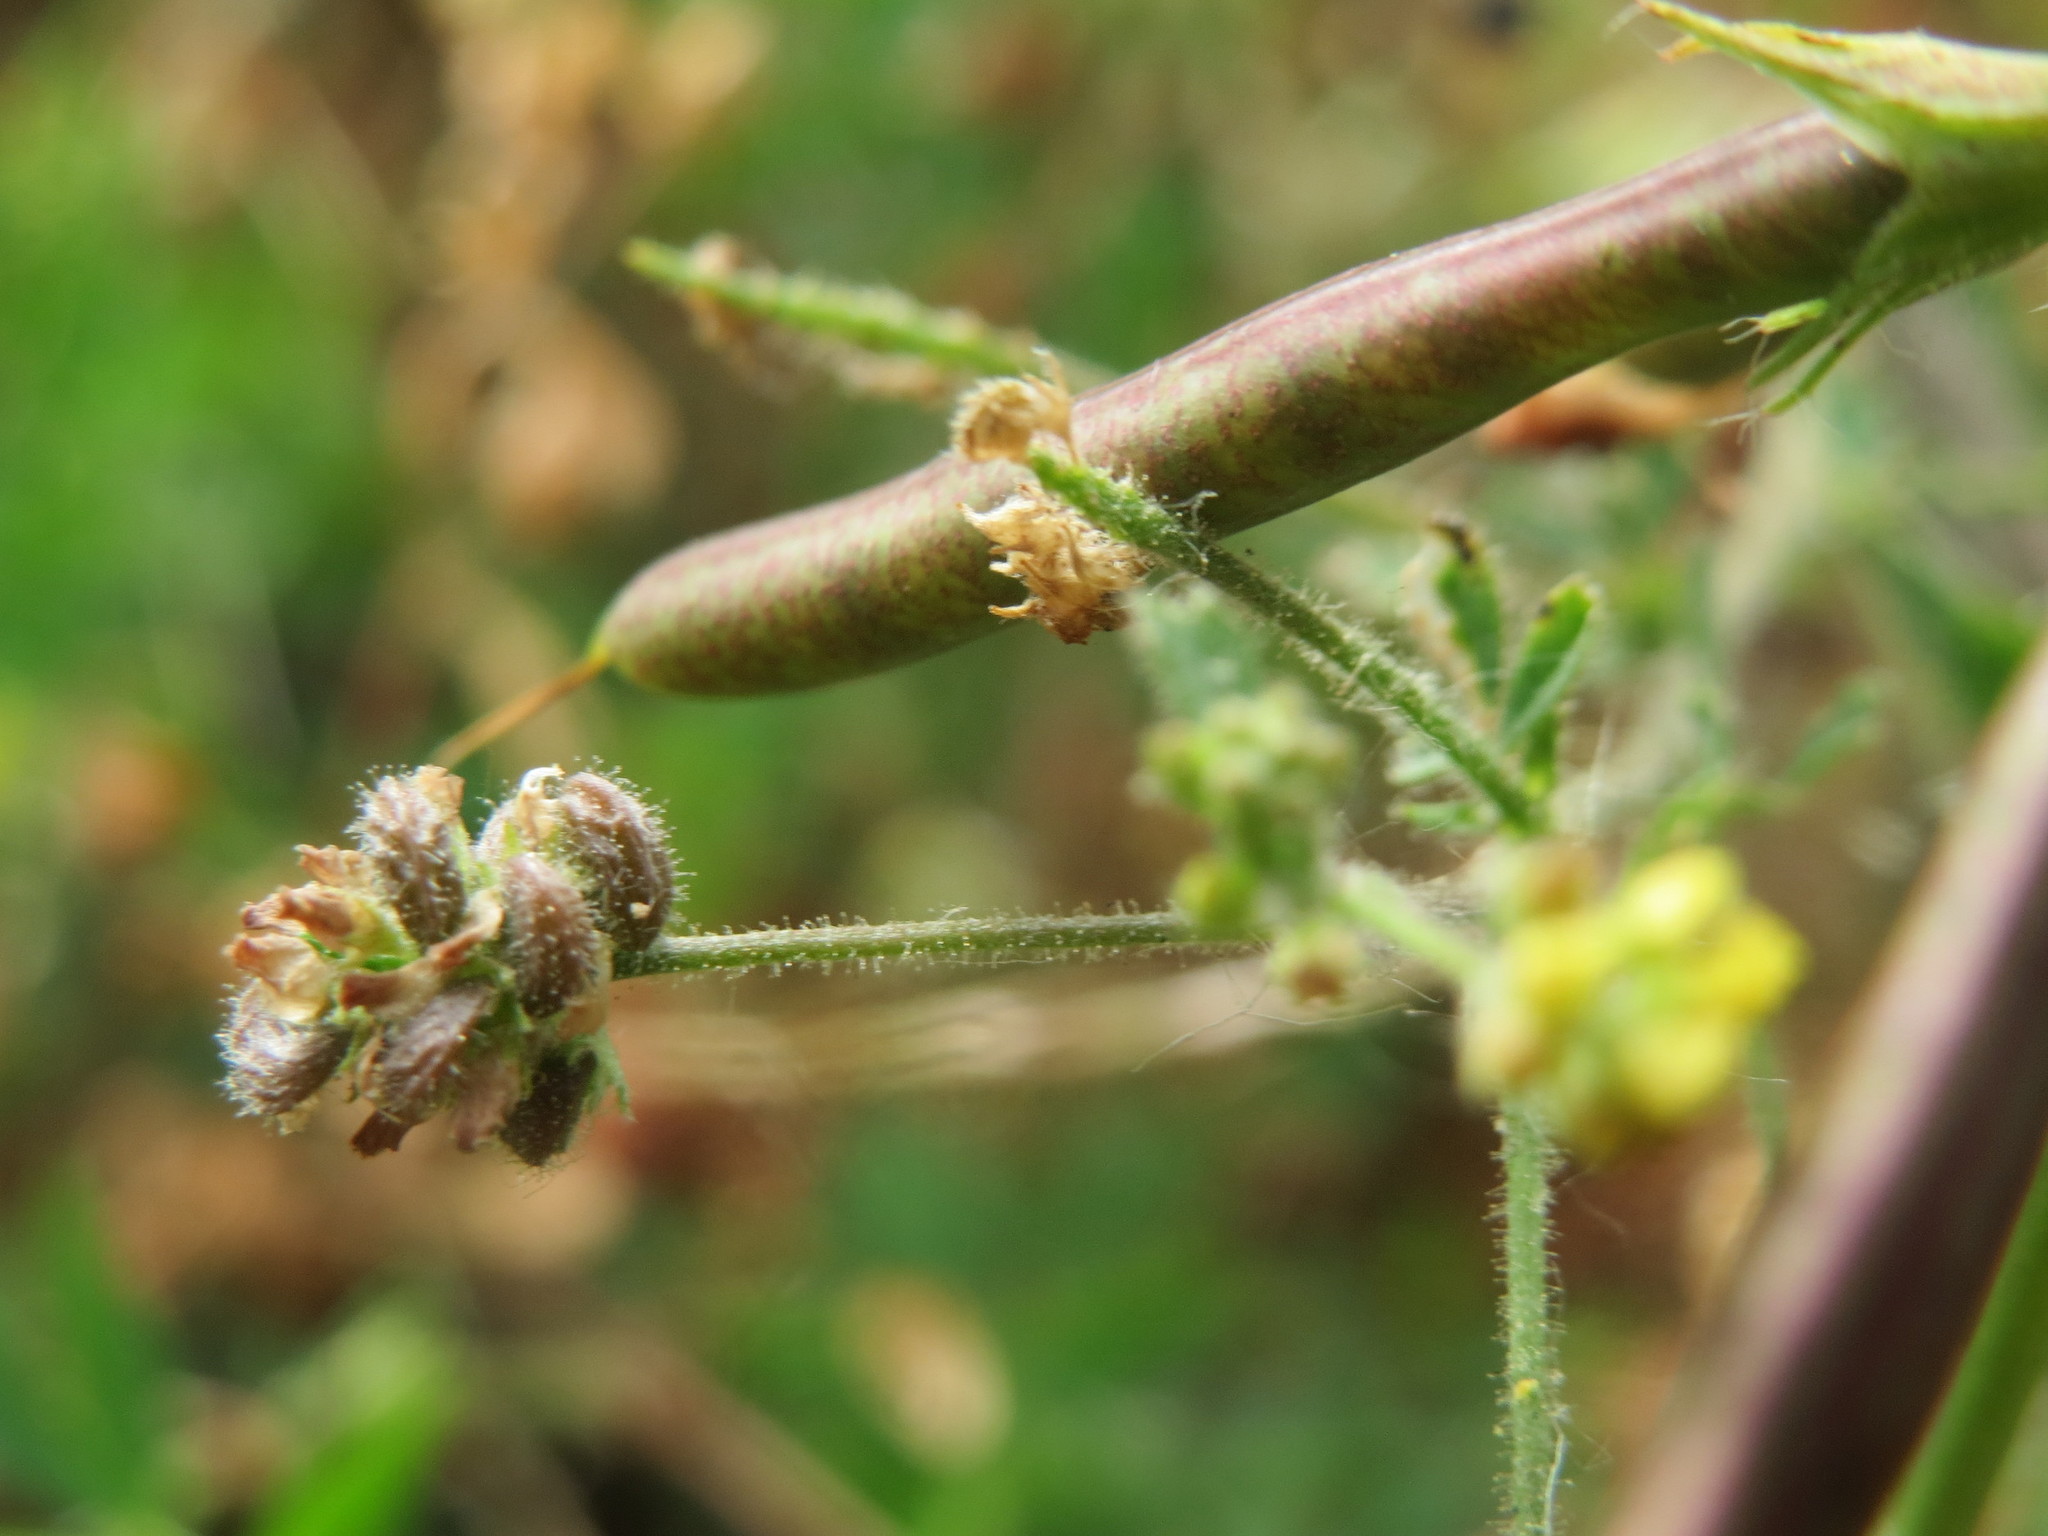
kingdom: Plantae
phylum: Tracheophyta
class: Magnoliopsida
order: Fabales
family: Fabaceae
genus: Medicago
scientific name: Medicago lupulina
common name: Black medick
